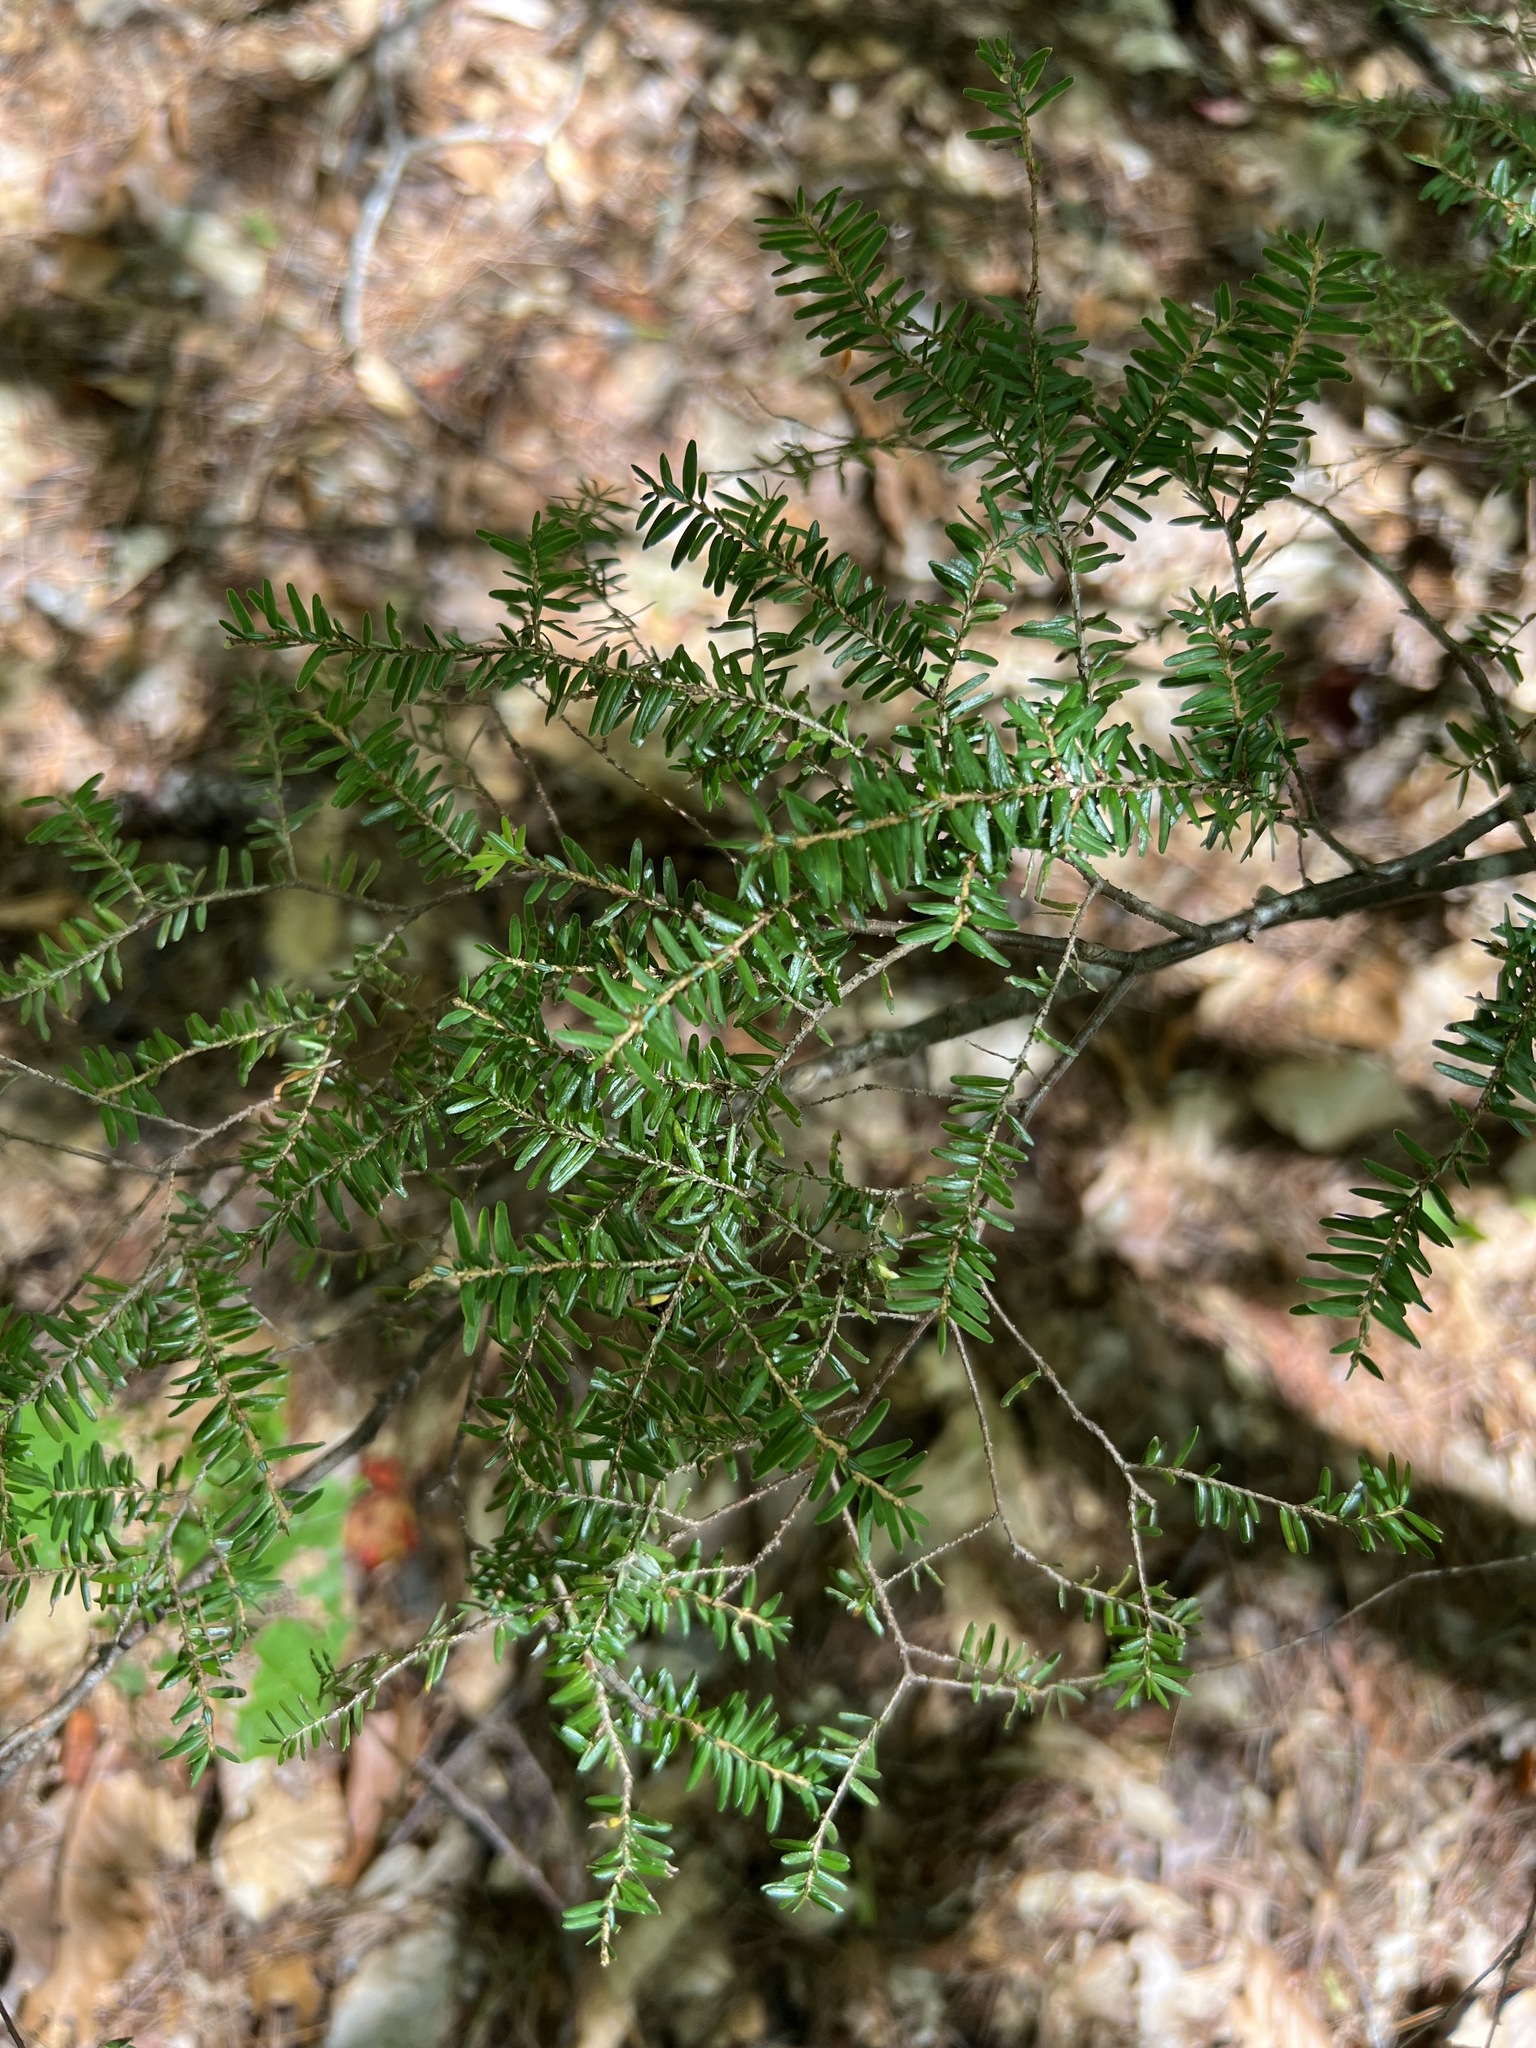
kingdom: Plantae
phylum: Tracheophyta
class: Pinopsida
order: Pinales
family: Pinaceae
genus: Tsuga
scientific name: Tsuga canadensis
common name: Eastern hemlock
